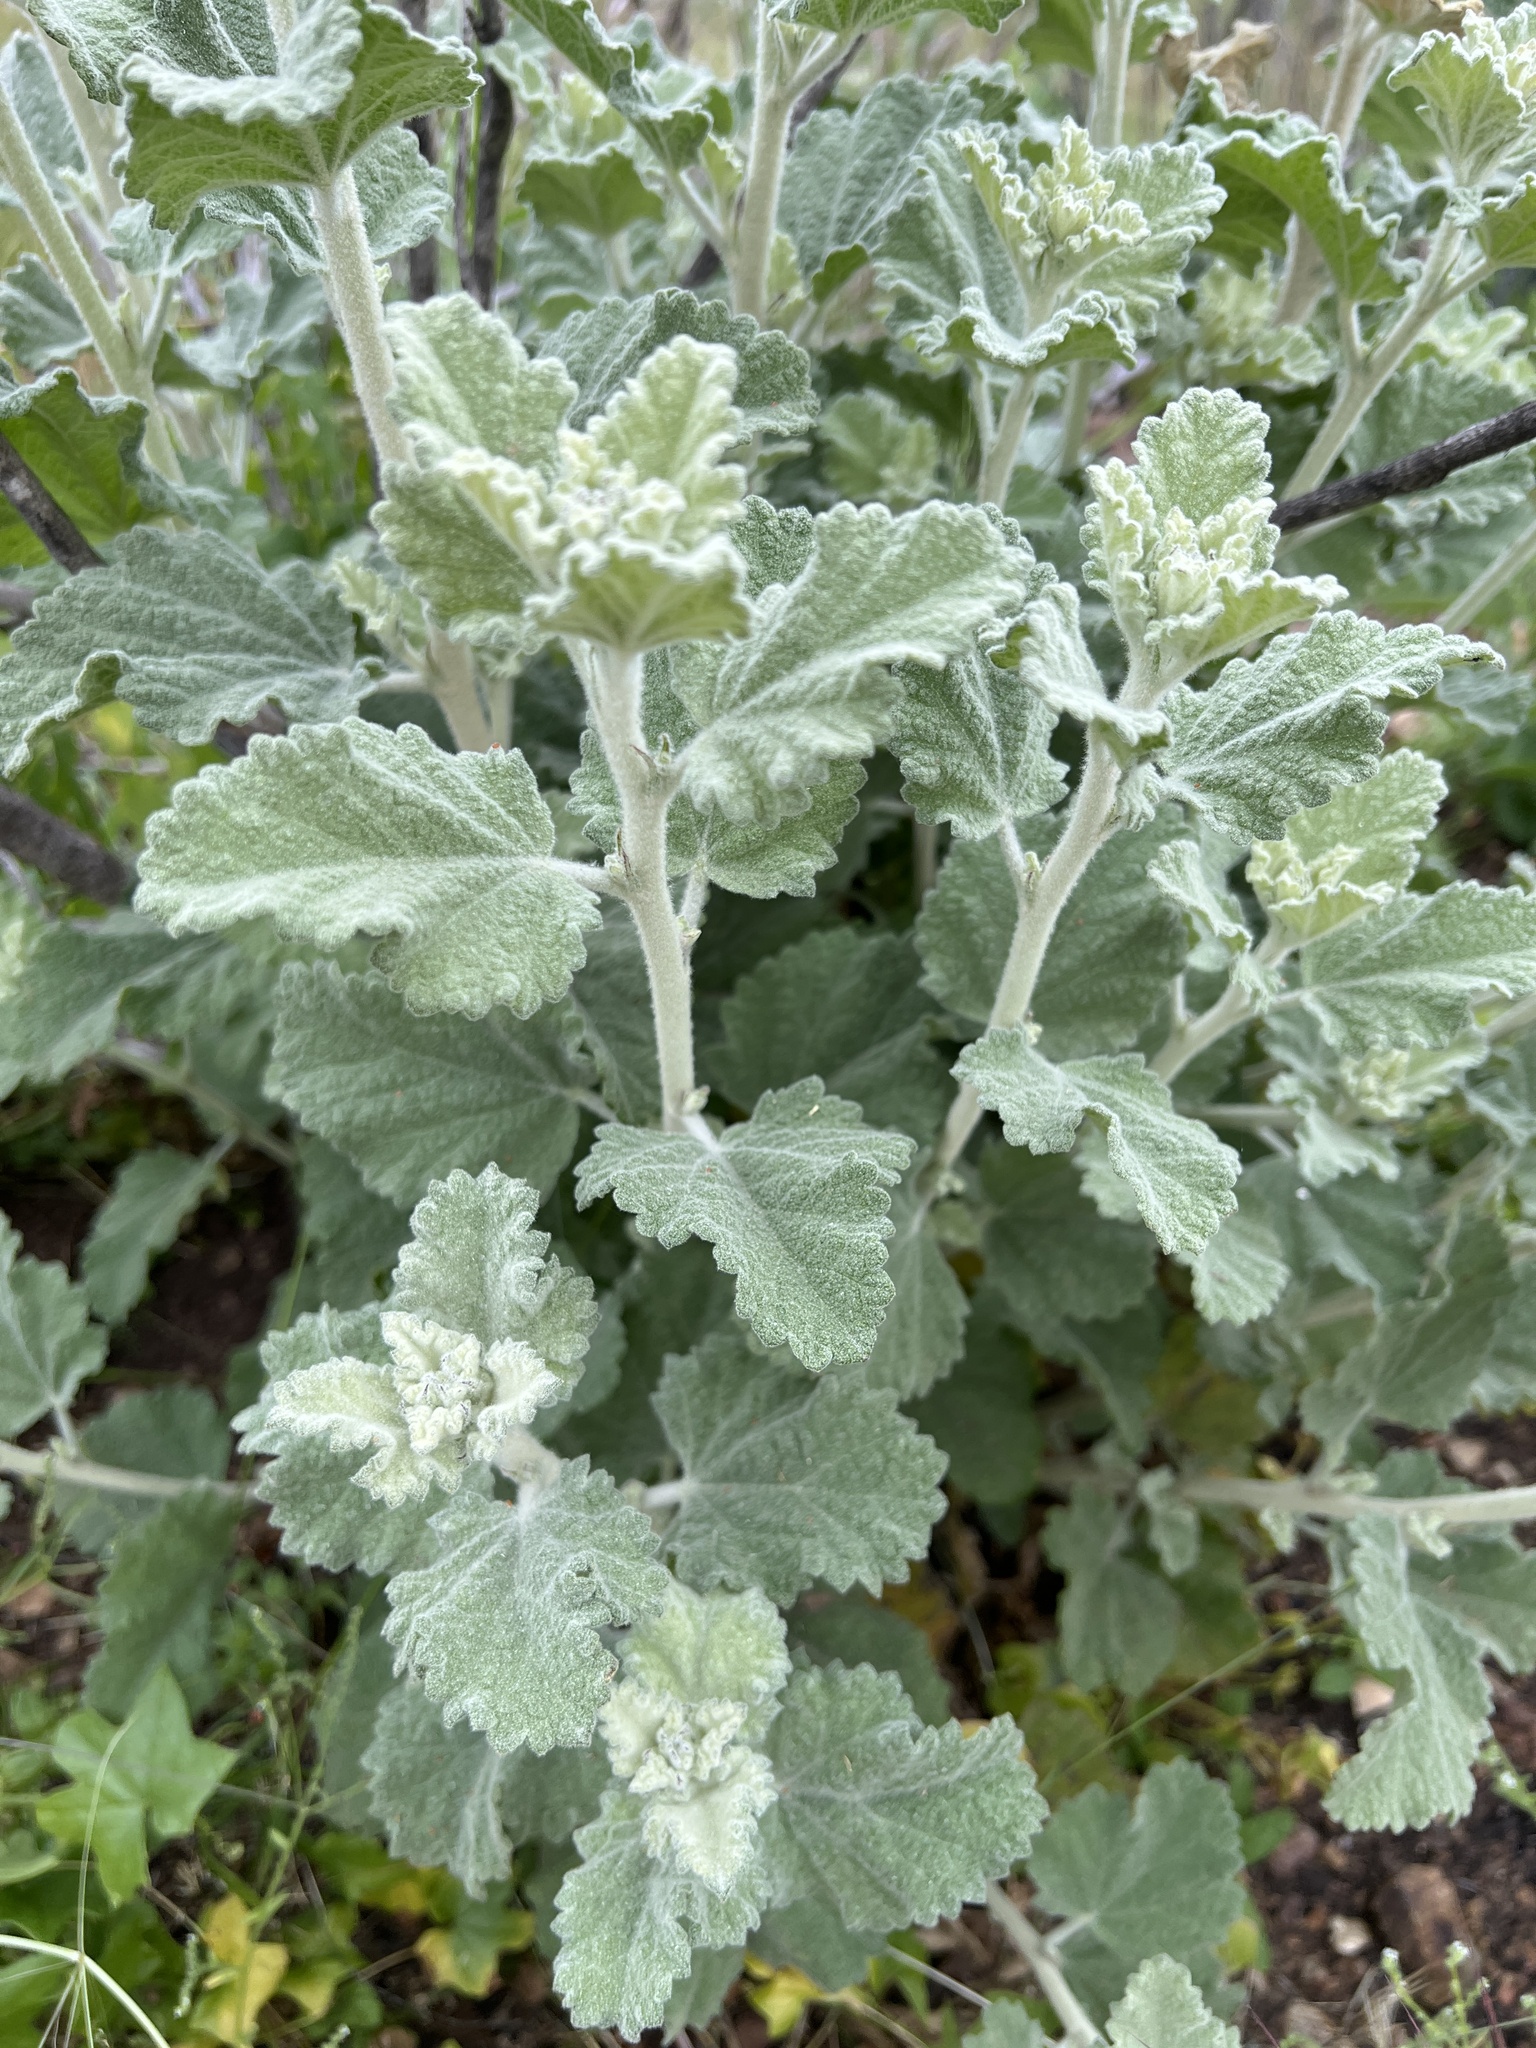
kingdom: Plantae
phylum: Tracheophyta
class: Magnoliopsida
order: Malvales
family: Malvaceae
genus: Malacothamnus
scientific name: Malacothamnus fasciculatus
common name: Sant cruz island bush-mallow
